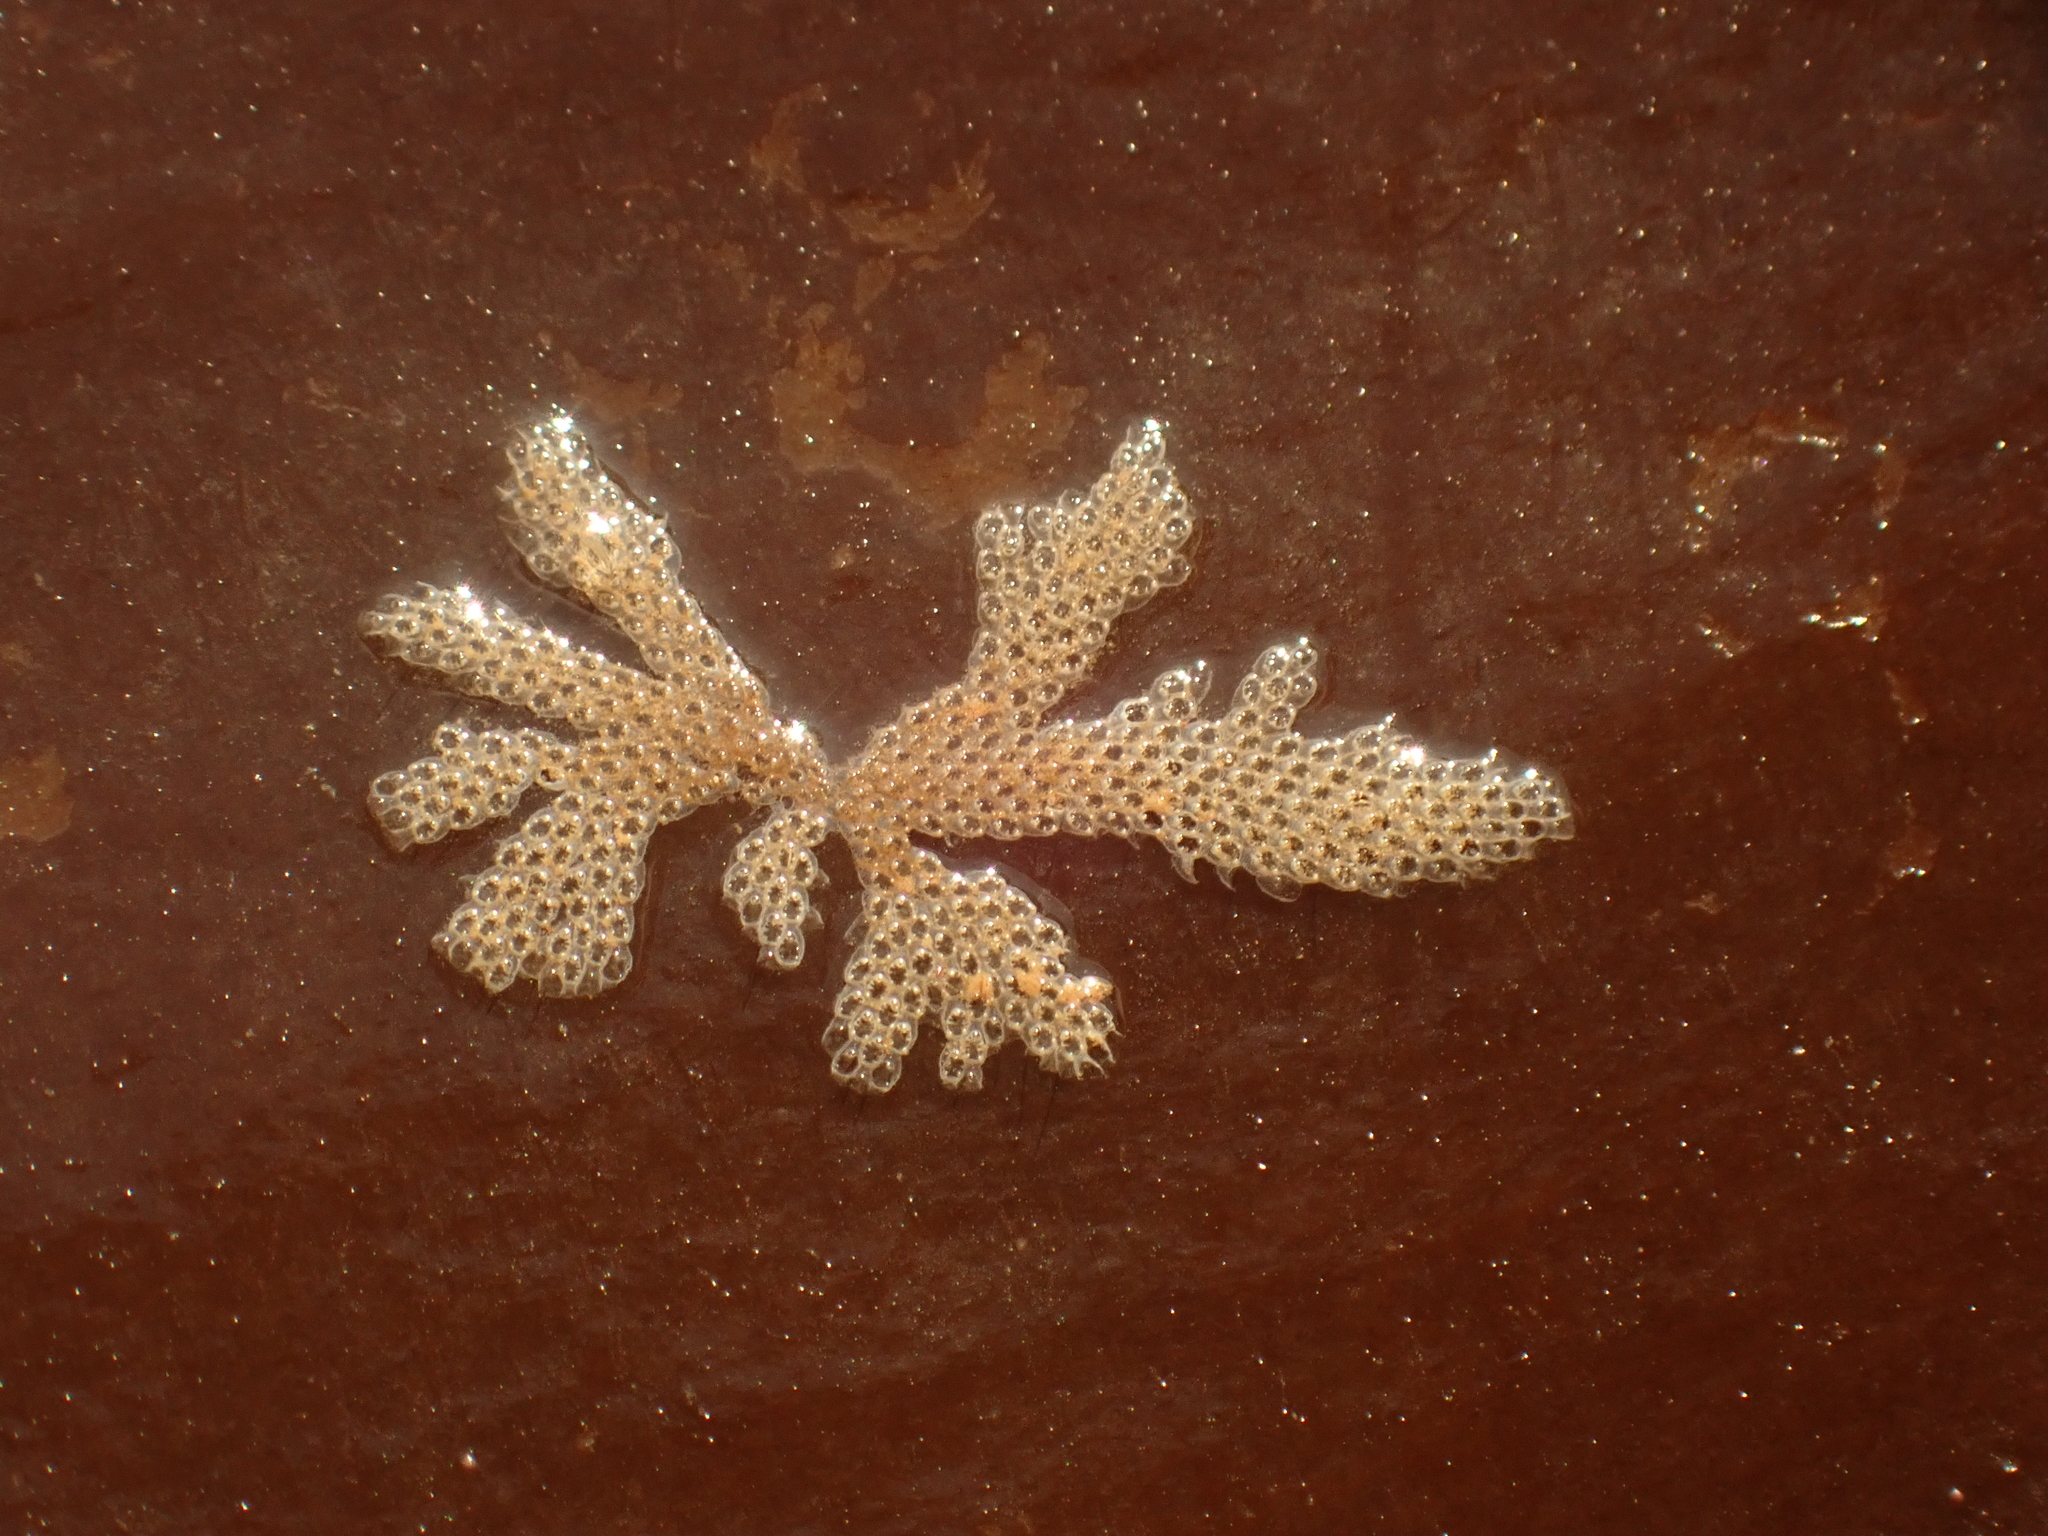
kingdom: Animalia
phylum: Bryozoa
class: Gymnolaemata
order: Cheilostomatida
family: Electridae
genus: Electra
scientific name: Electra pilosa
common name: Hairy sea-mat
